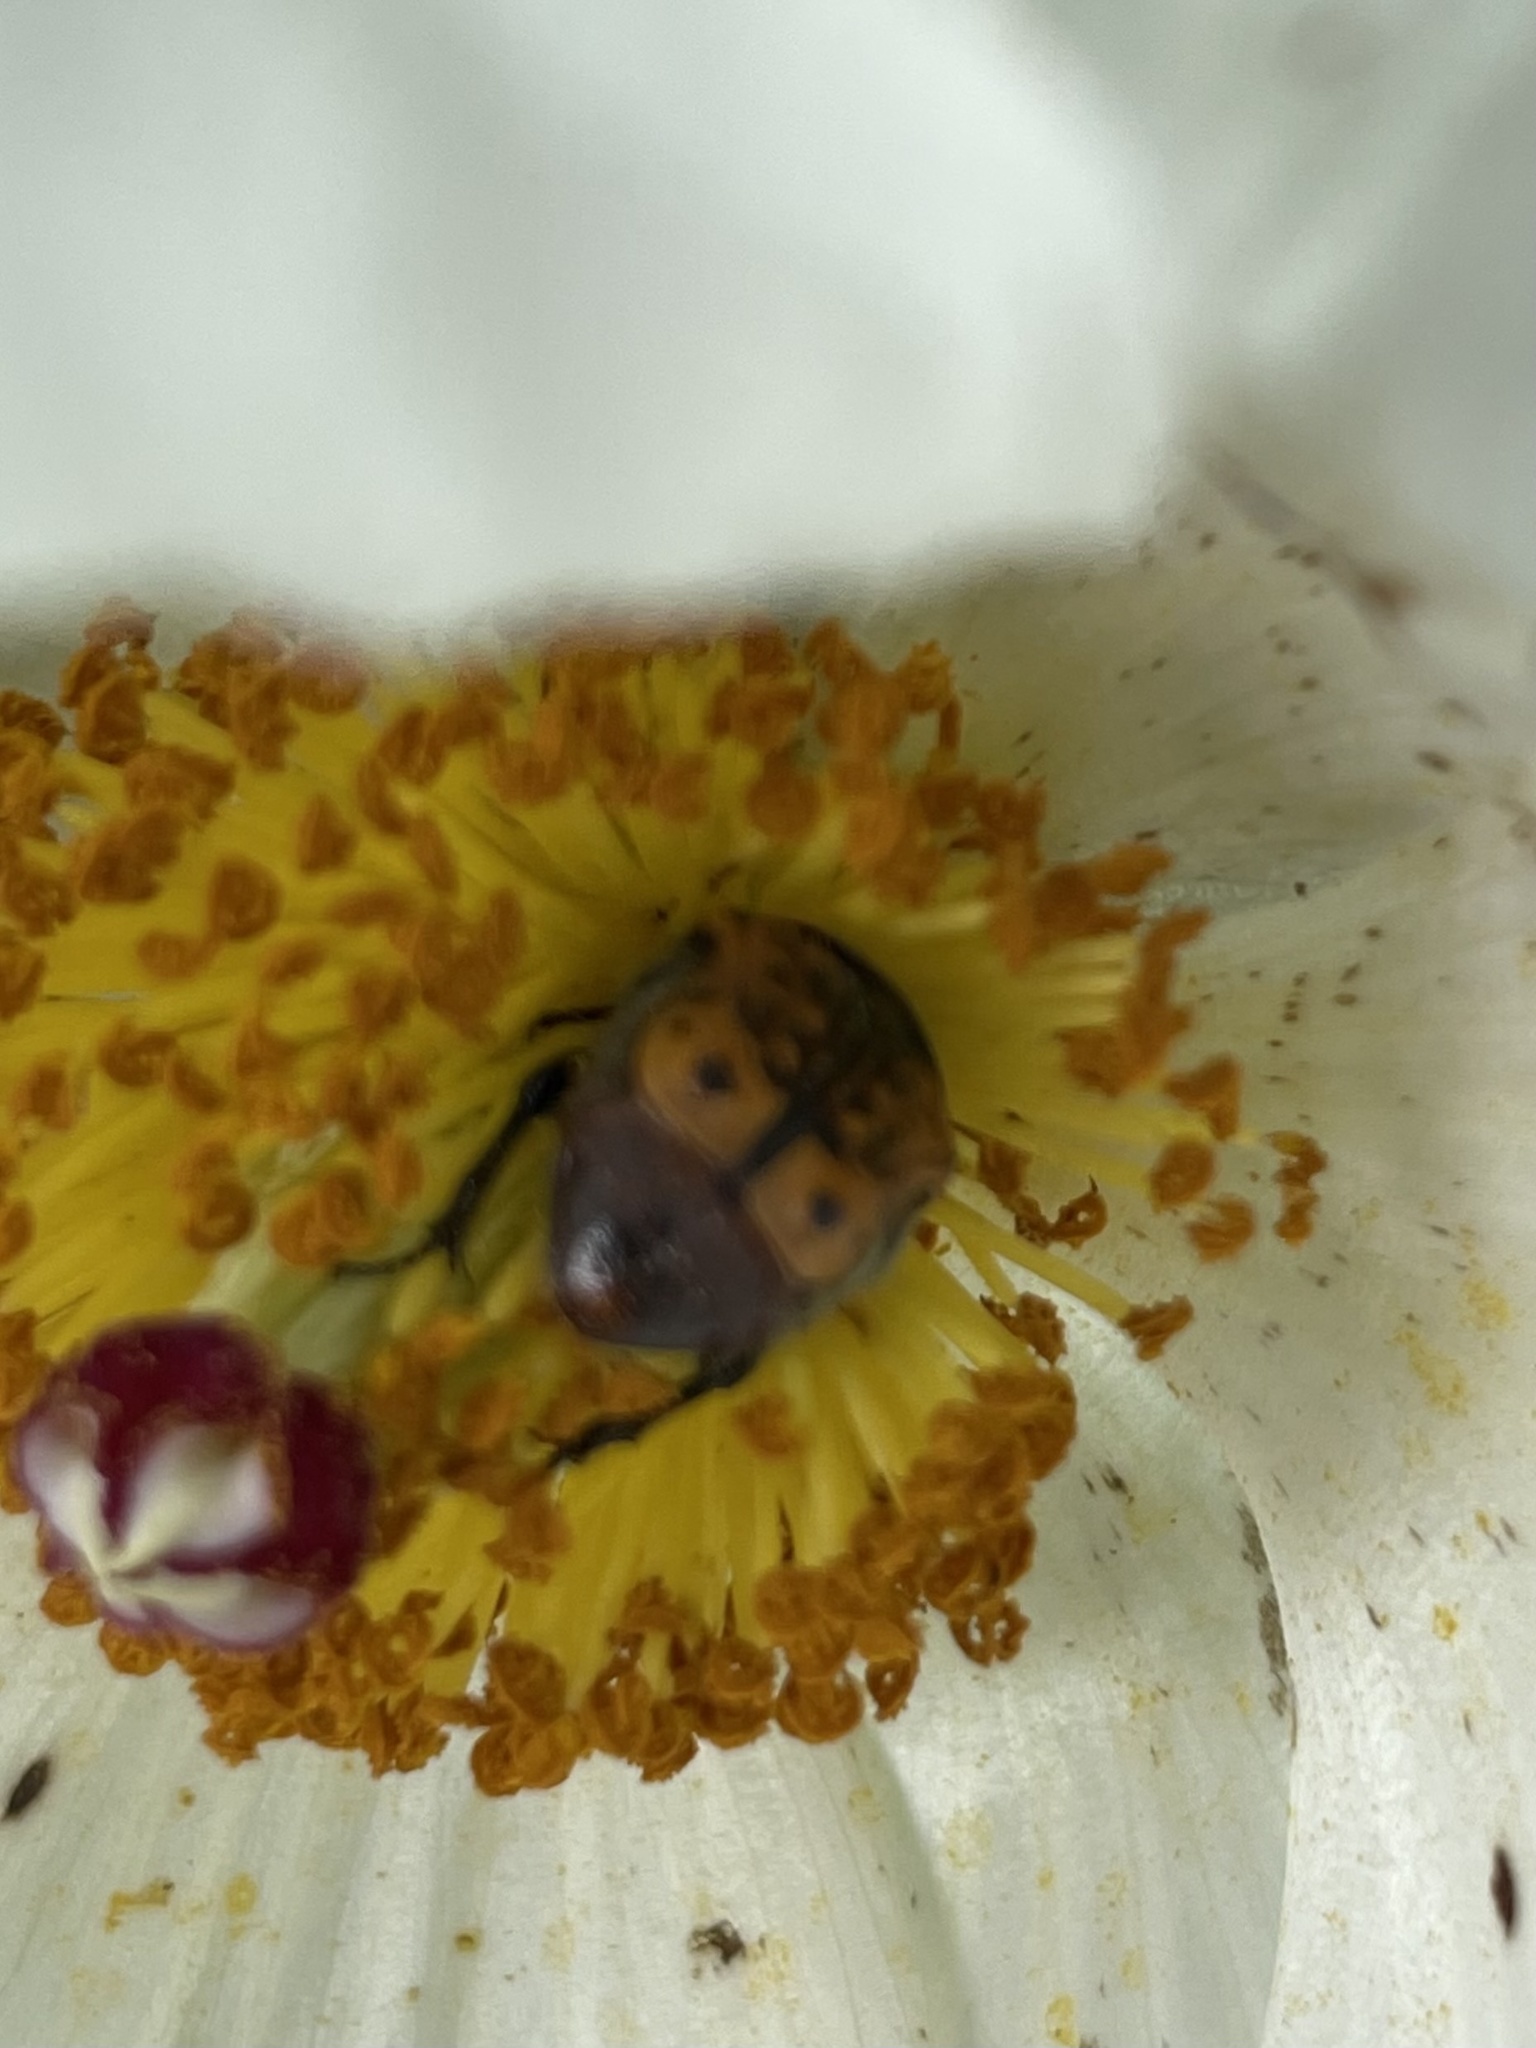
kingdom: Animalia
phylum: Arthropoda
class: Insecta
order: Coleoptera
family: Scarabaeidae
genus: Euphoria
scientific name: Euphoria kernii
